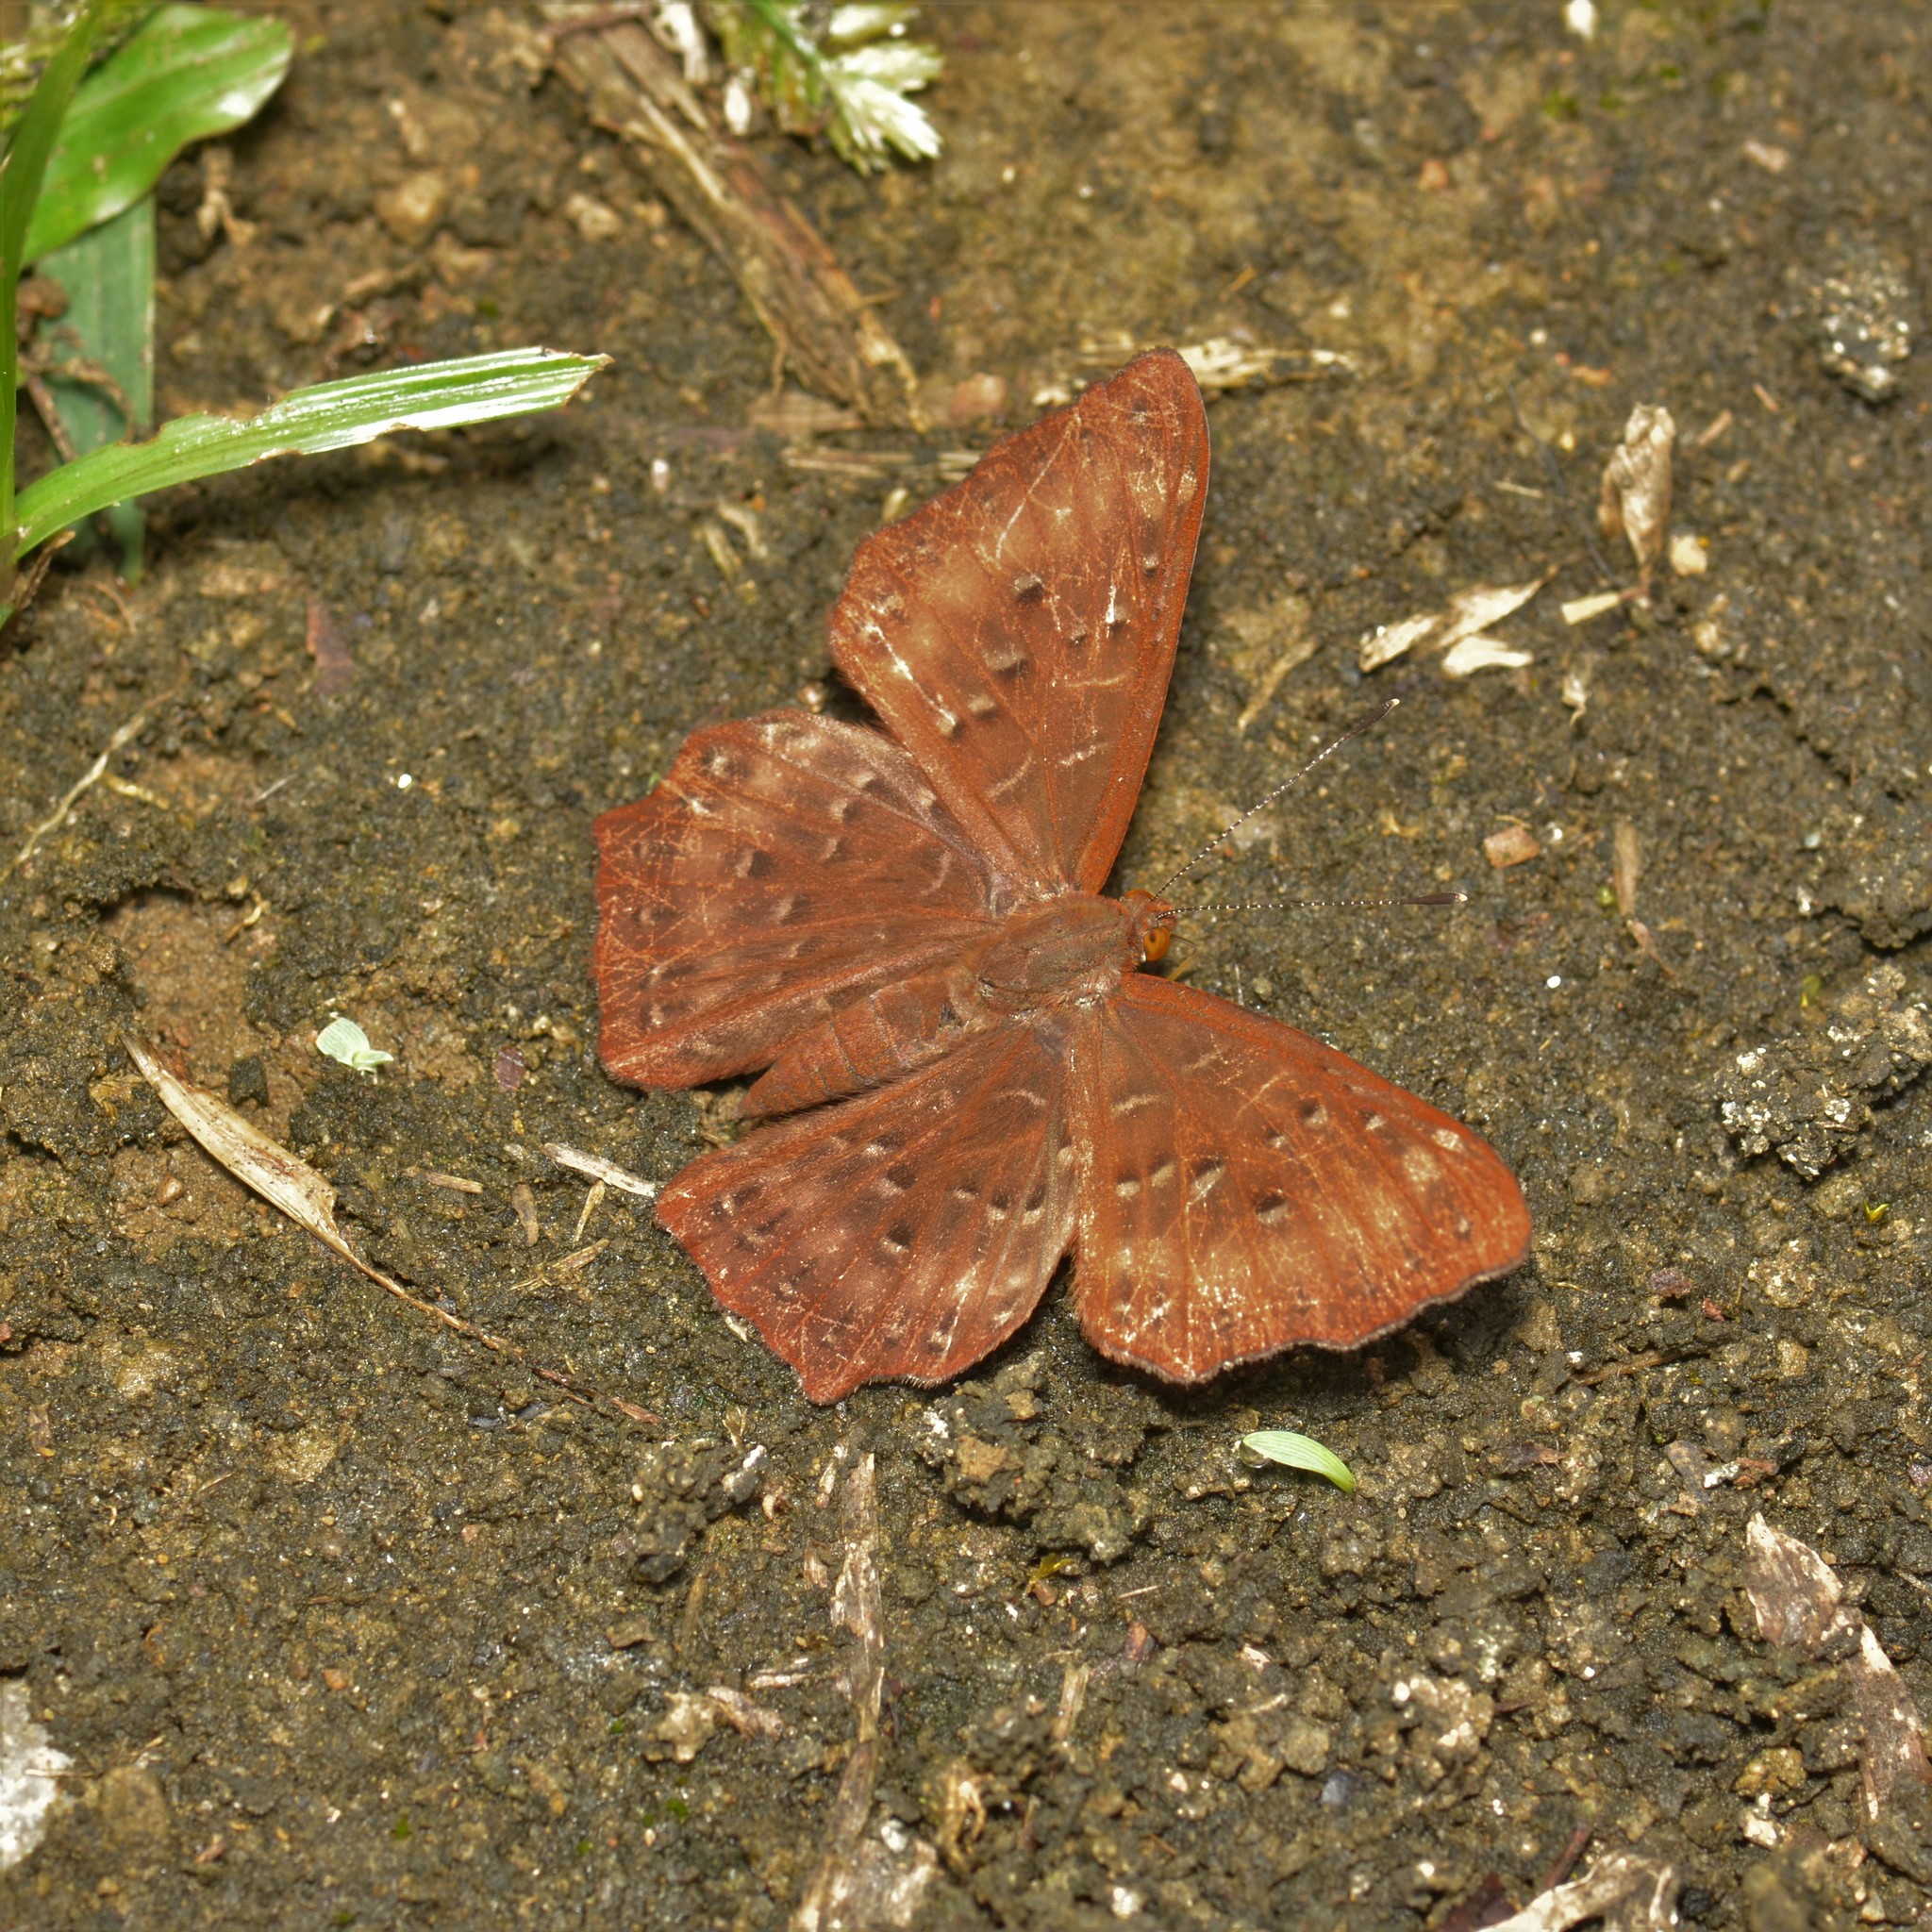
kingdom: Animalia
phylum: Arthropoda
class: Insecta
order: Lepidoptera
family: Riodinidae
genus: Zemeros
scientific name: Zemeros flegyas
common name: Punchinello
